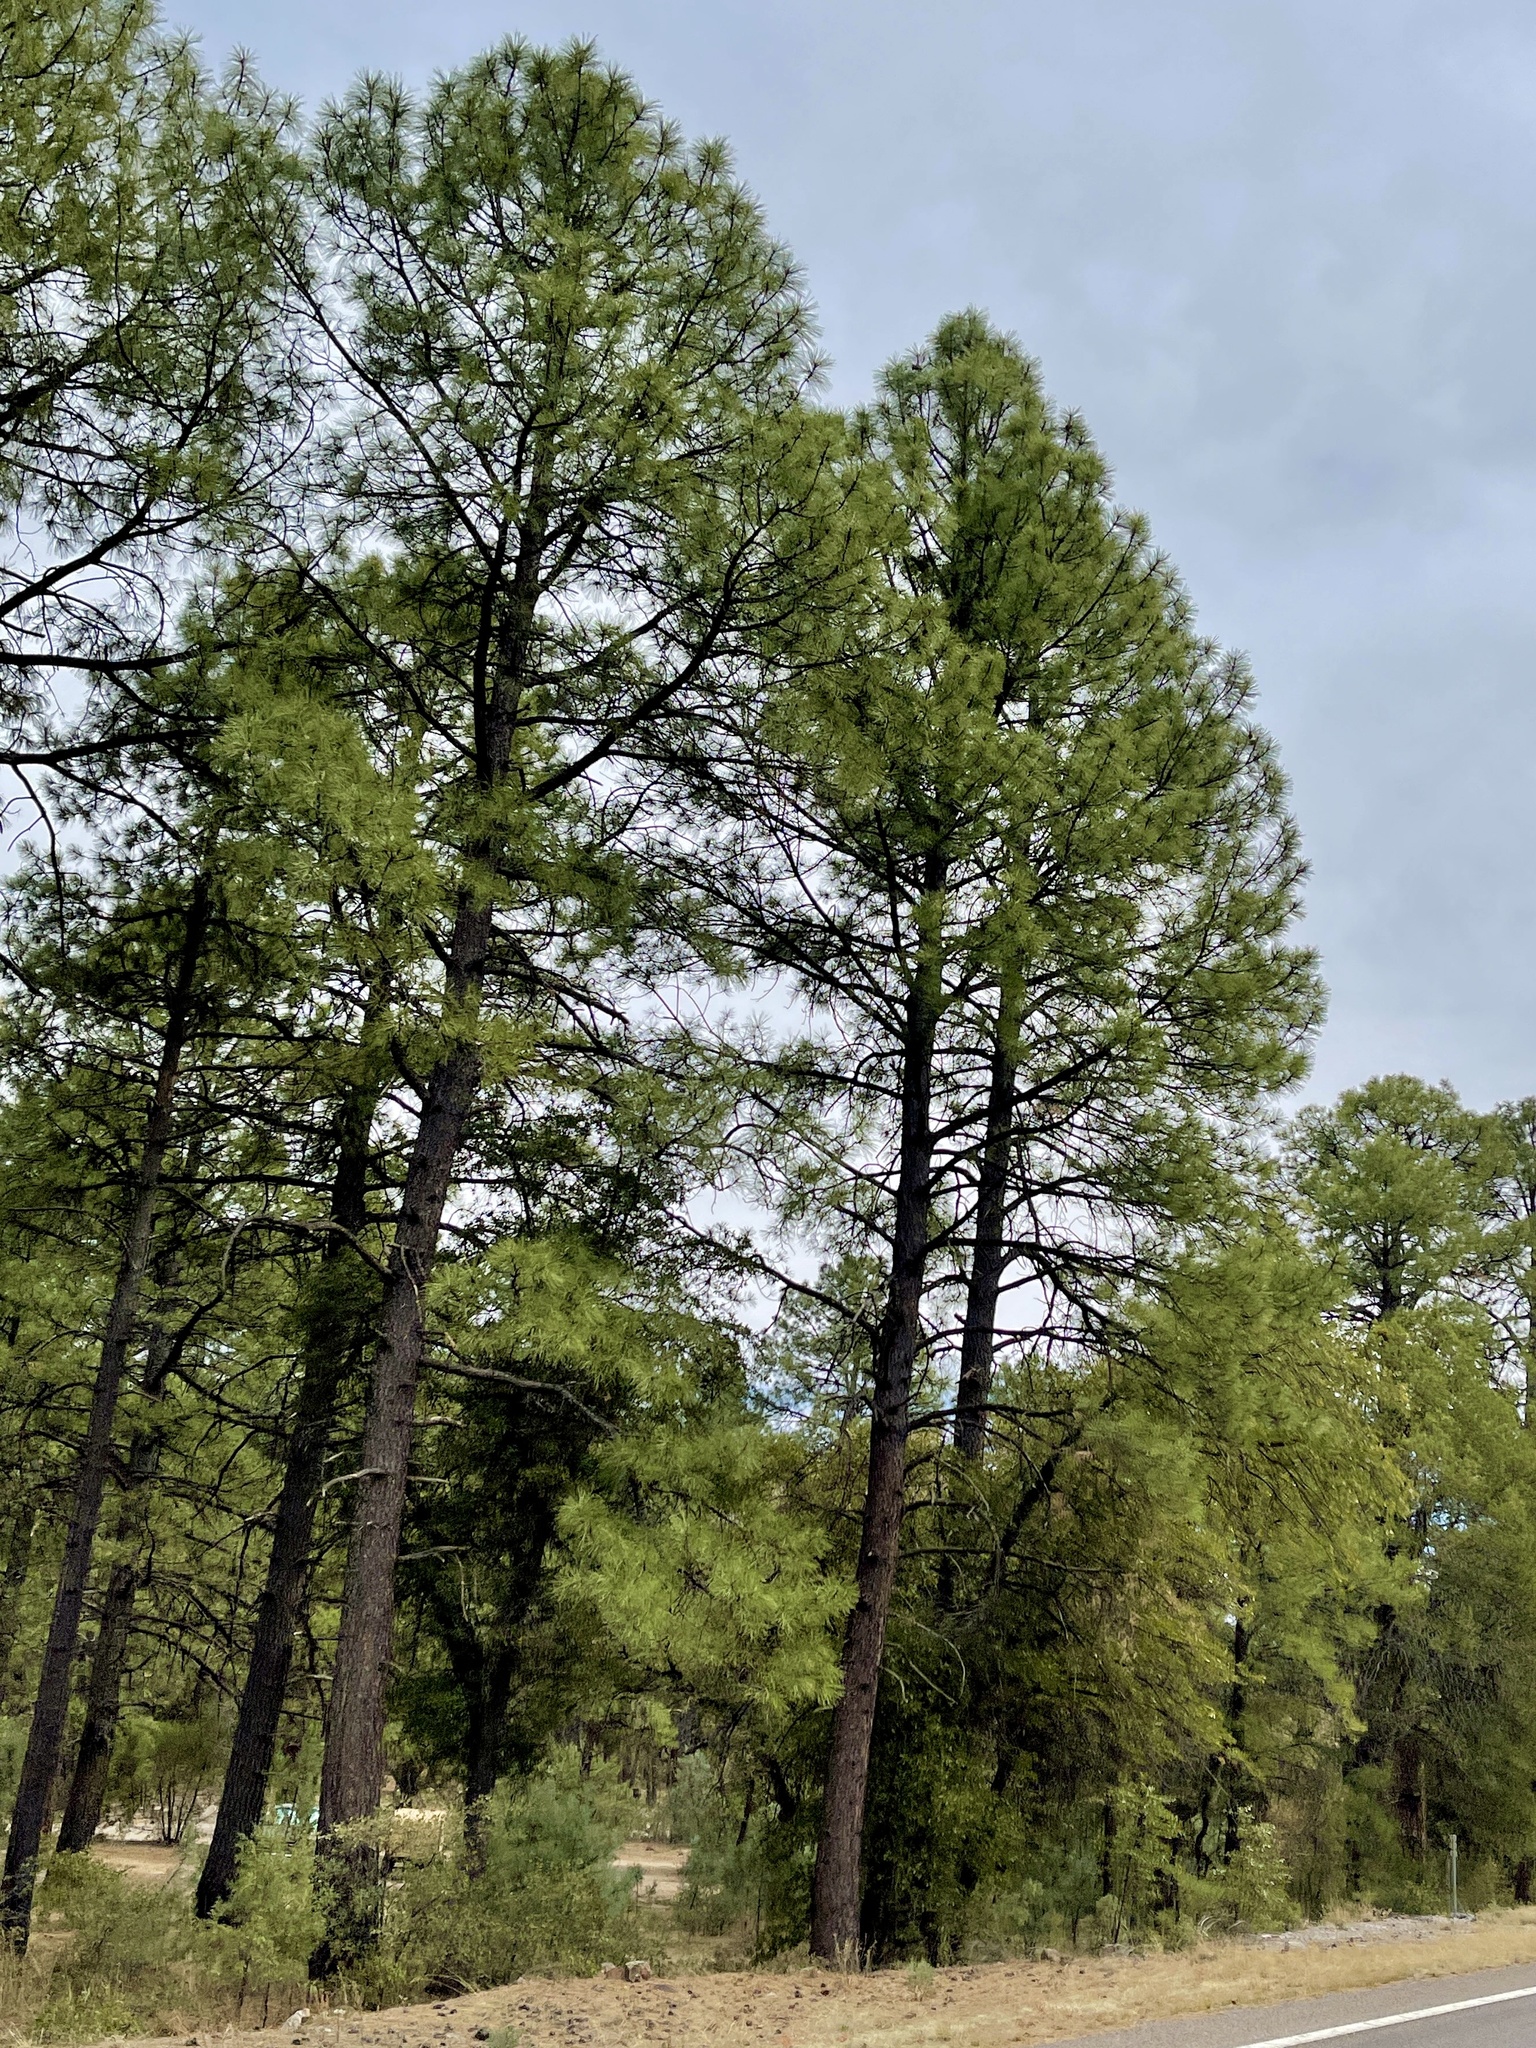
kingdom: Plantae
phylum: Tracheophyta
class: Pinopsida
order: Pinales
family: Pinaceae
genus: Pinus
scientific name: Pinus ponderosa
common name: Western yellow-pine
